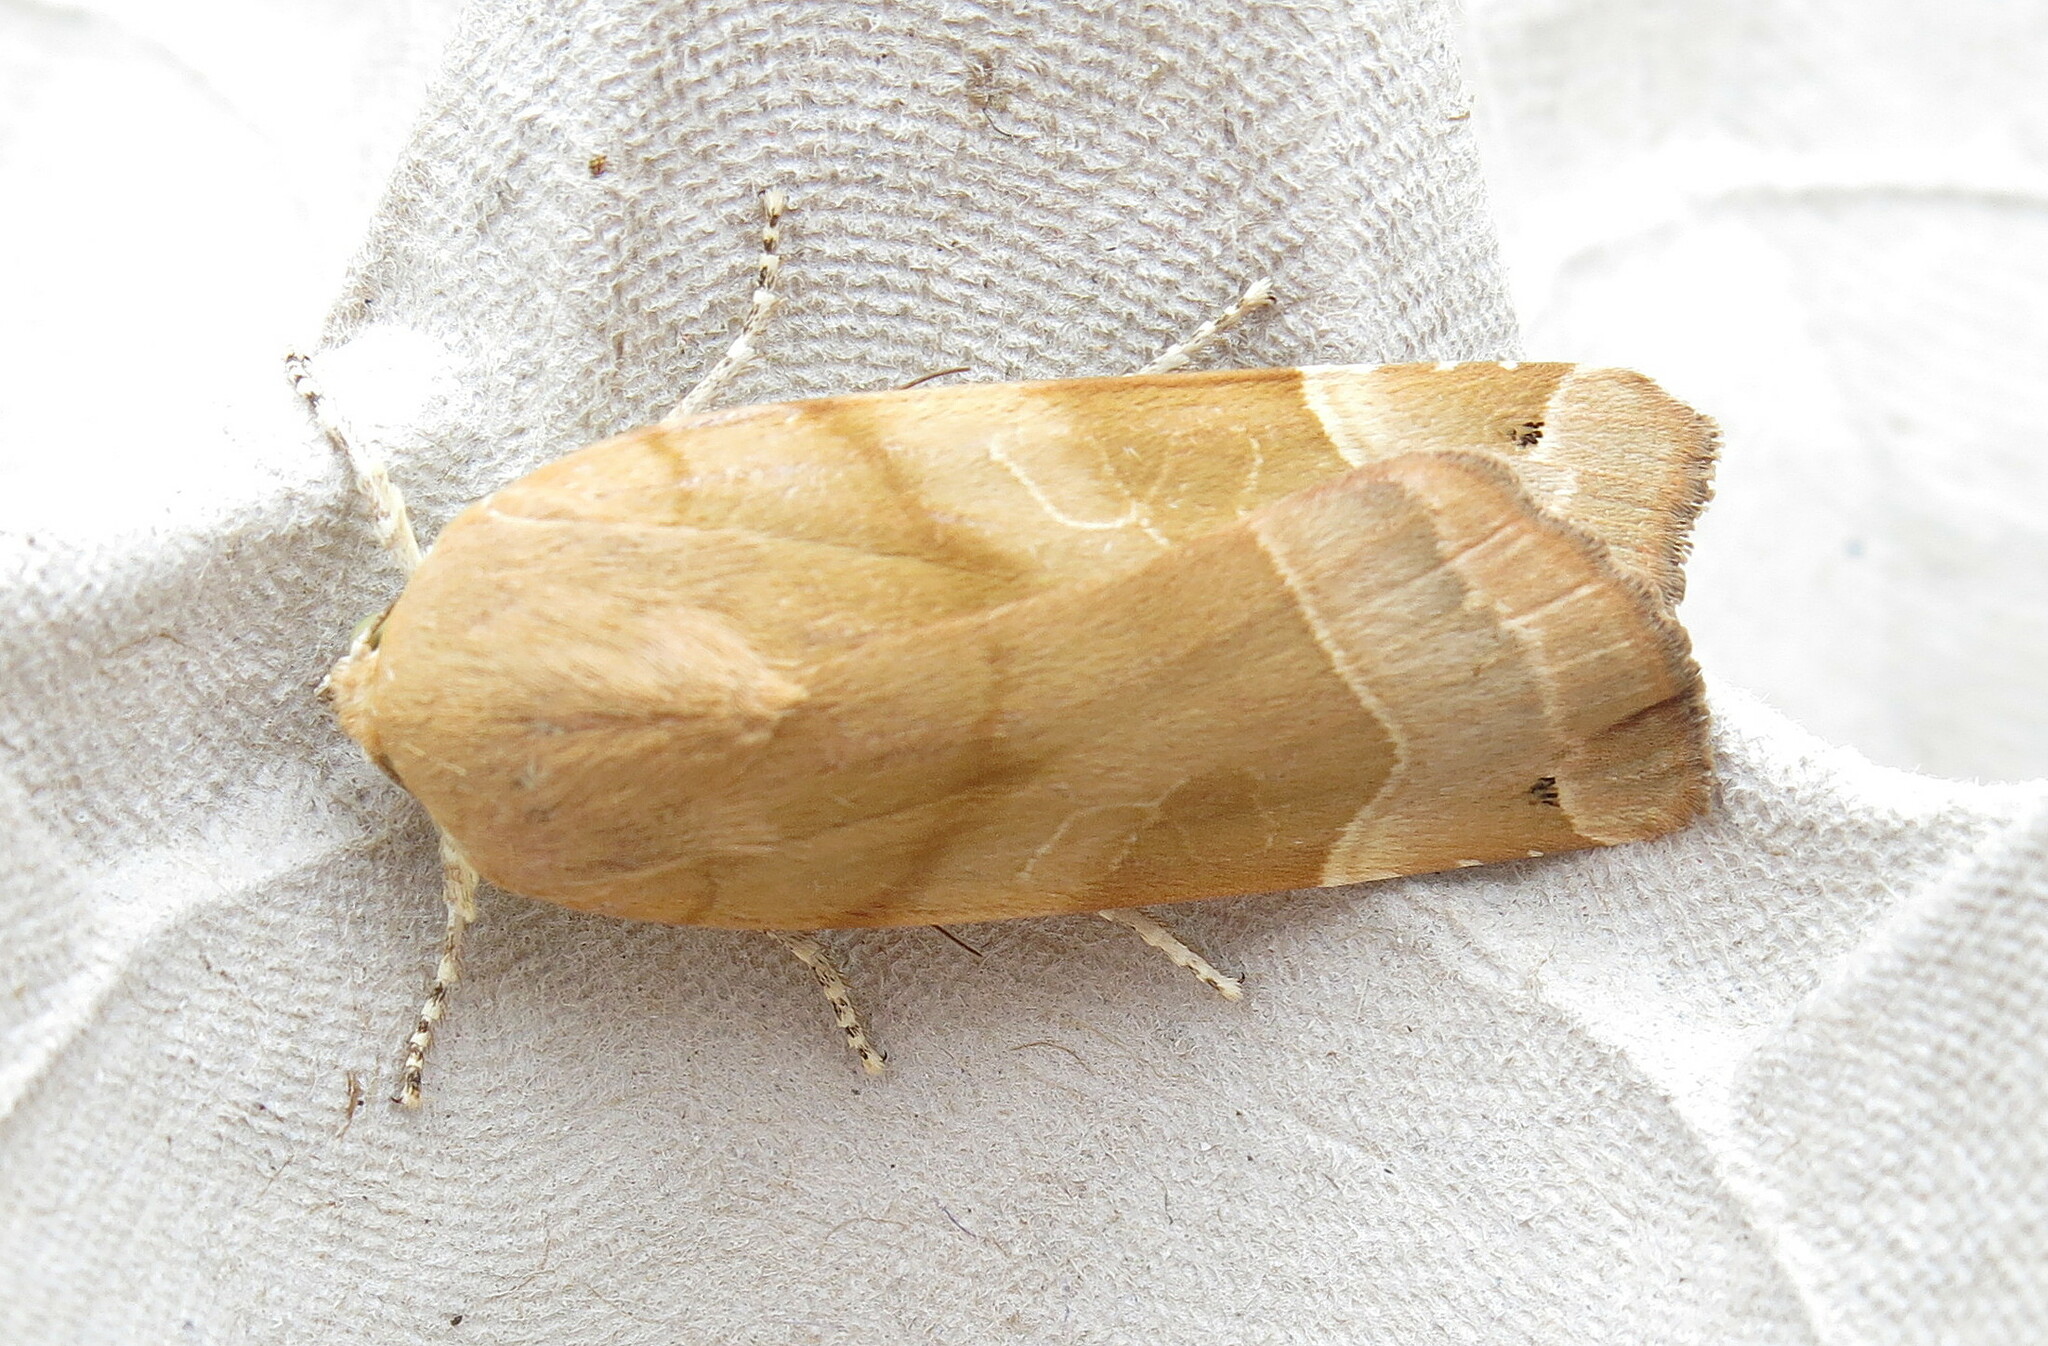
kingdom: Animalia
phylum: Arthropoda
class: Insecta
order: Lepidoptera
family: Noctuidae
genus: Noctua
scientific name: Noctua fimbriata
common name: Broad-bordered yellow underwing
